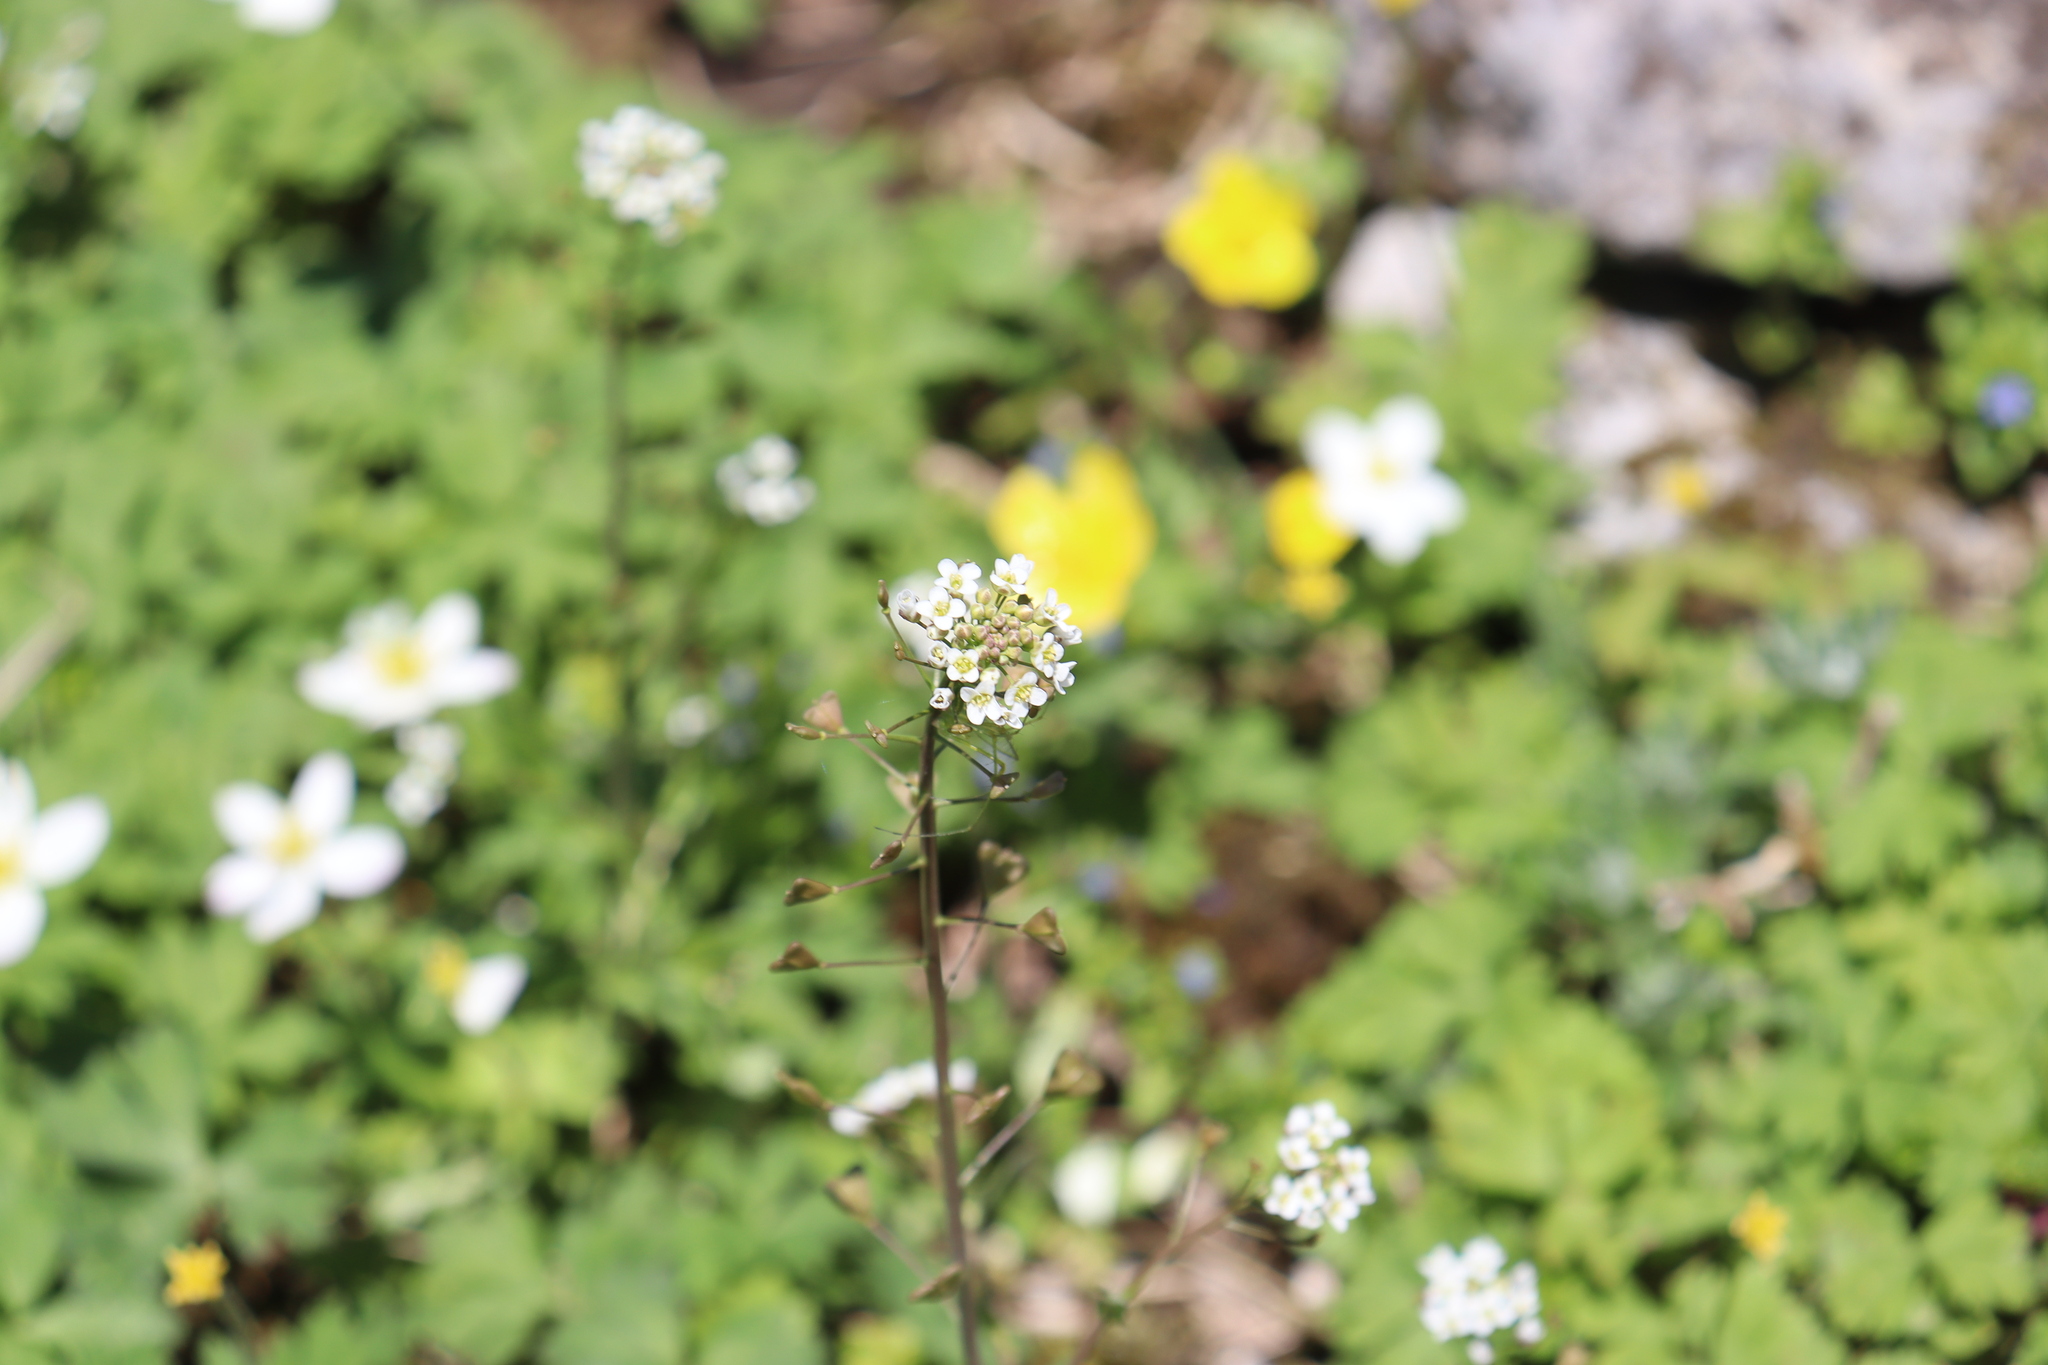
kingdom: Plantae
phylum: Tracheophyta
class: Magnoliopsida
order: Brassicales
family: Brassicaceae
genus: Capsella
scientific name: Capsella bursa-pastoris
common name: Shepherd's purse
